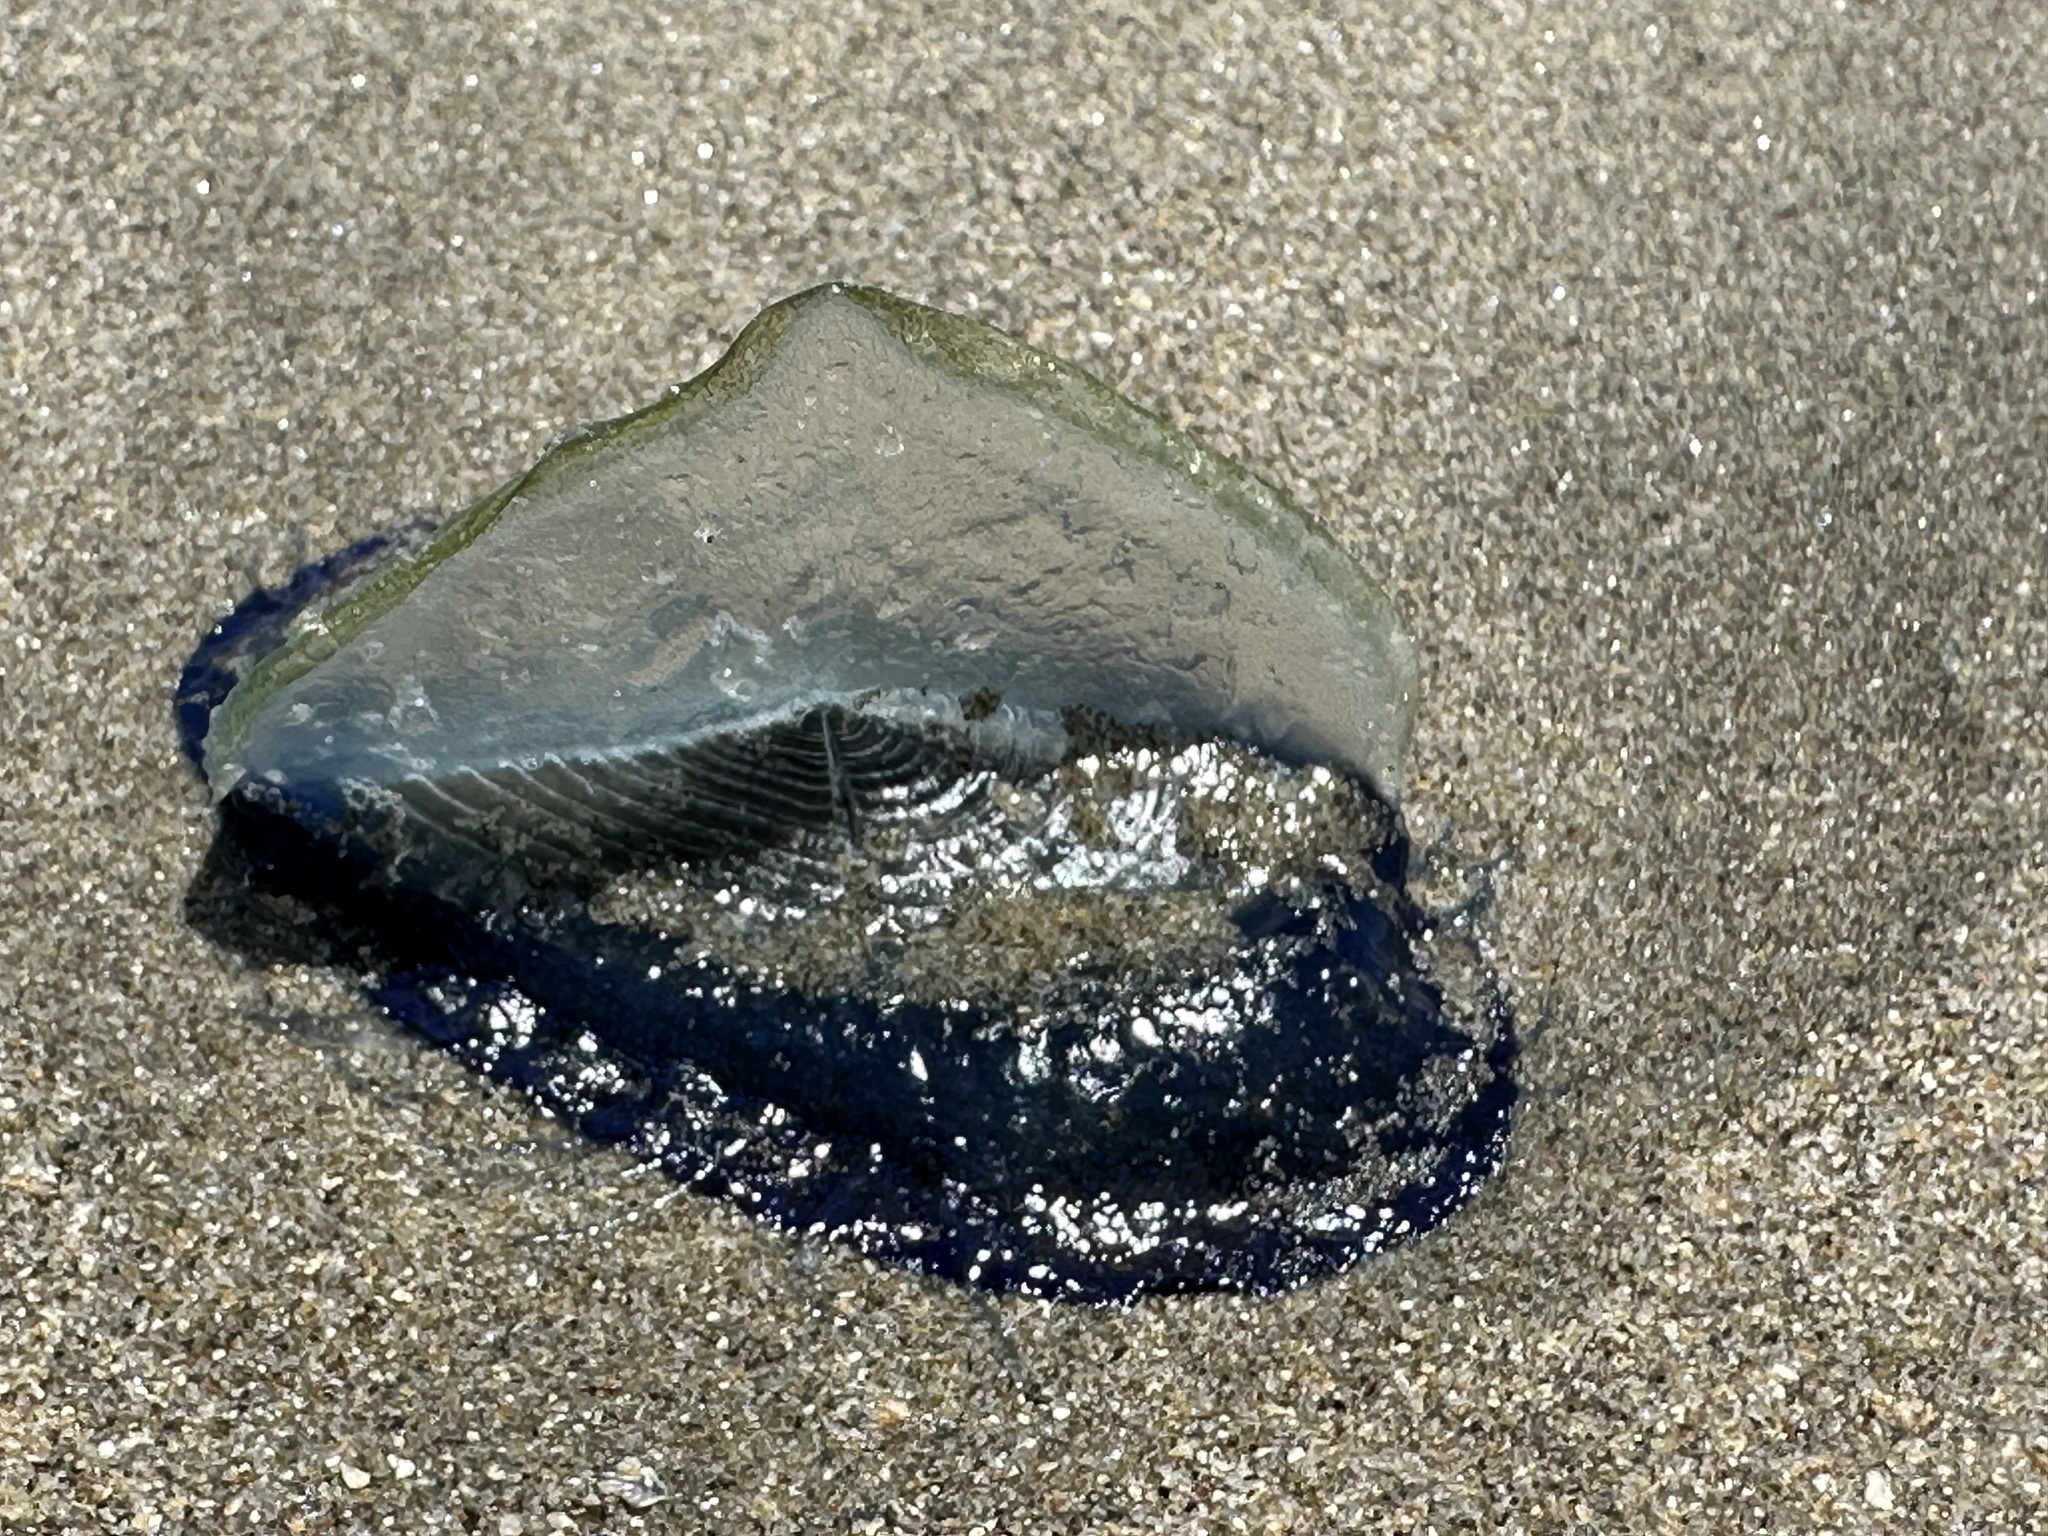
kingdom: Animalia
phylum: Cnidaria
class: Hydrozoa
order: Anthoathecata
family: Porpitidae
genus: Velella
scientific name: Velella velella
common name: By-the-wind-sailor
